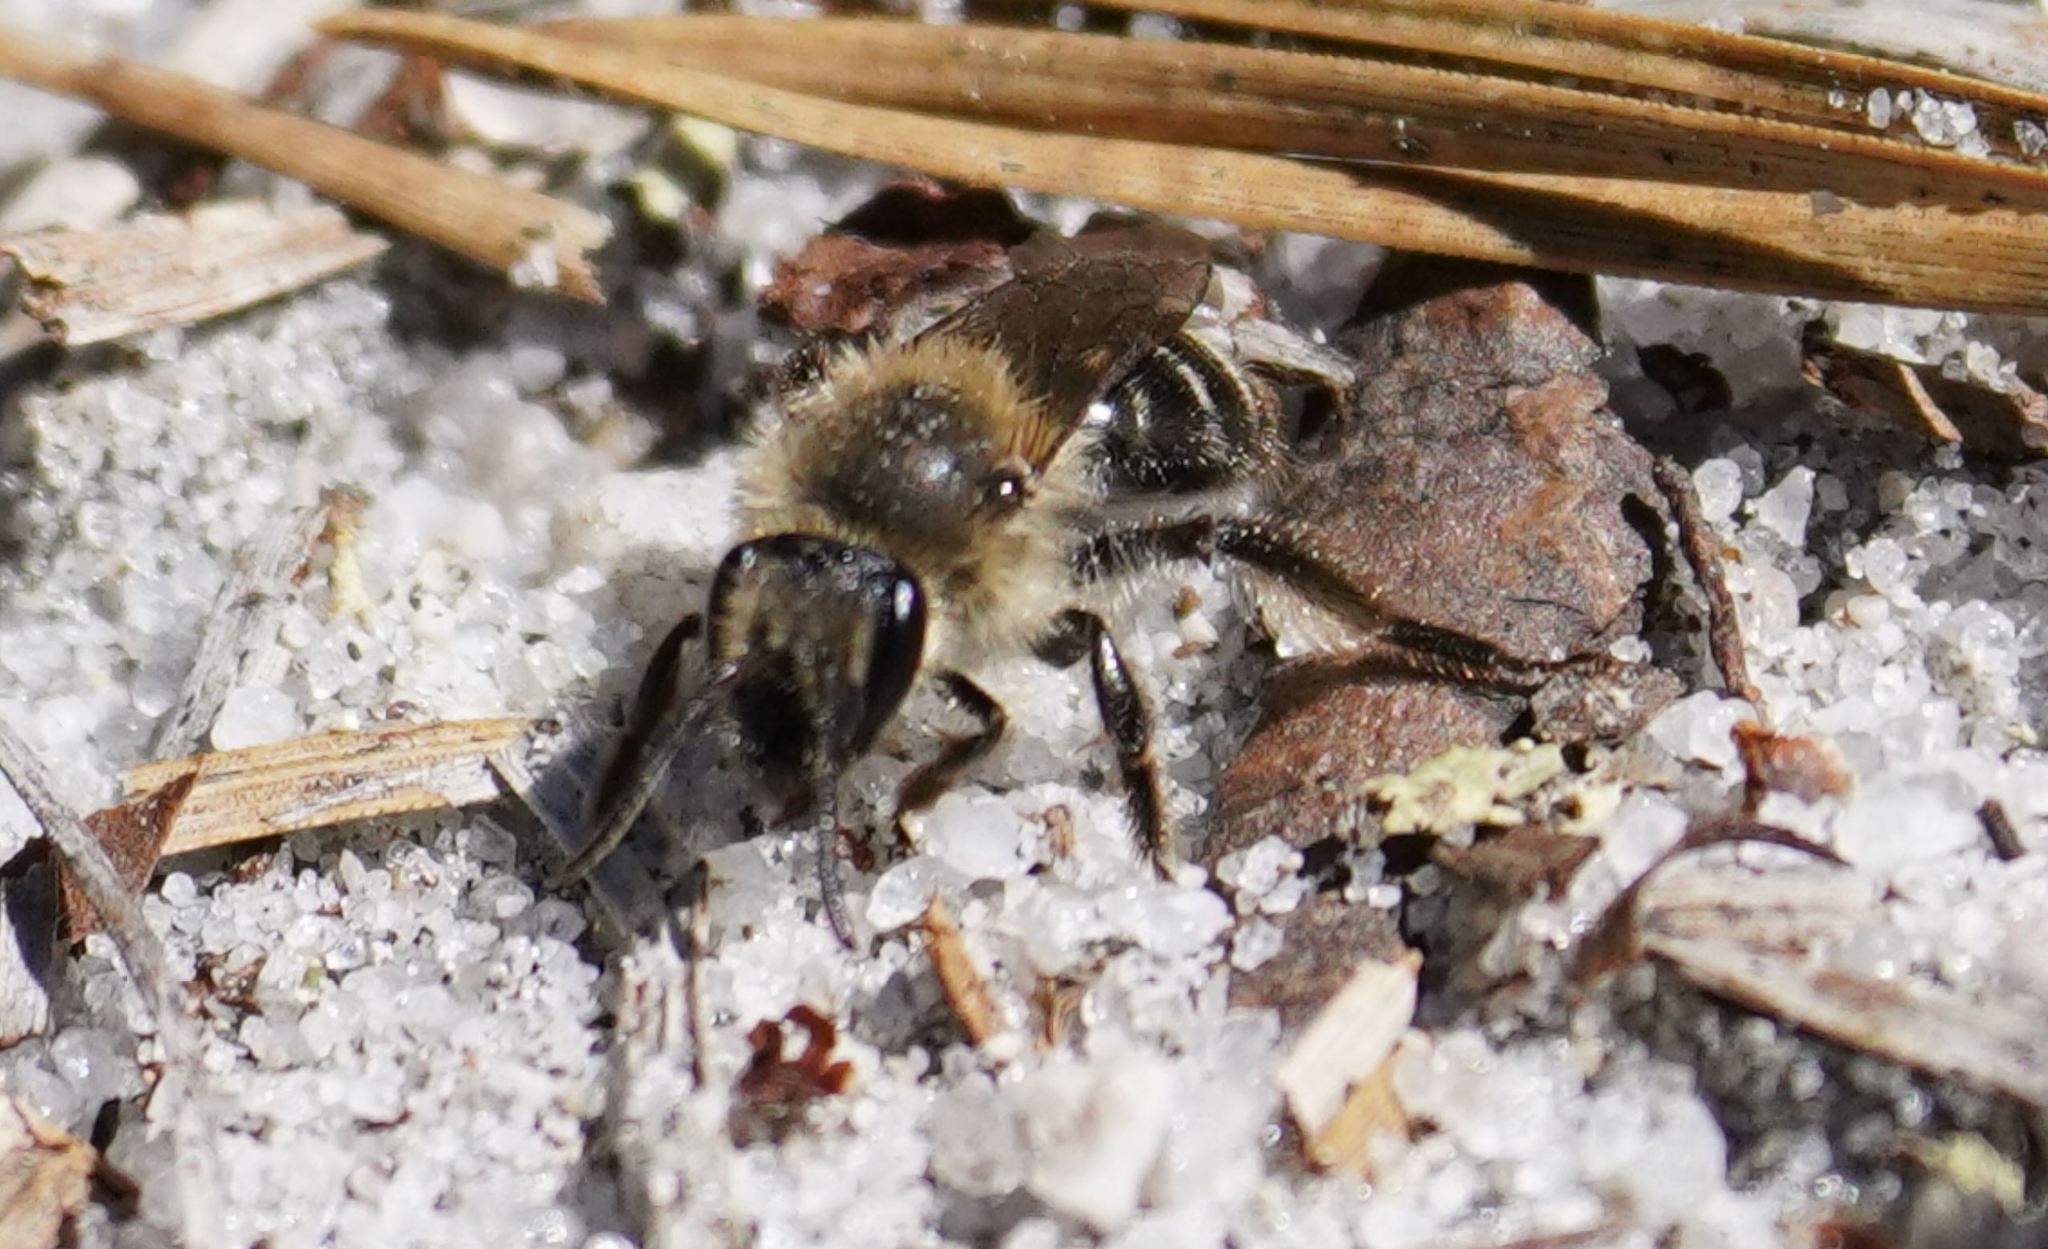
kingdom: Animalia
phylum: Arthropoda
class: Insecta
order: Hymenoptera
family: Andrenidae
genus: Andrena
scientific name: Andrena bradleyi
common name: Bradley's mining bee
